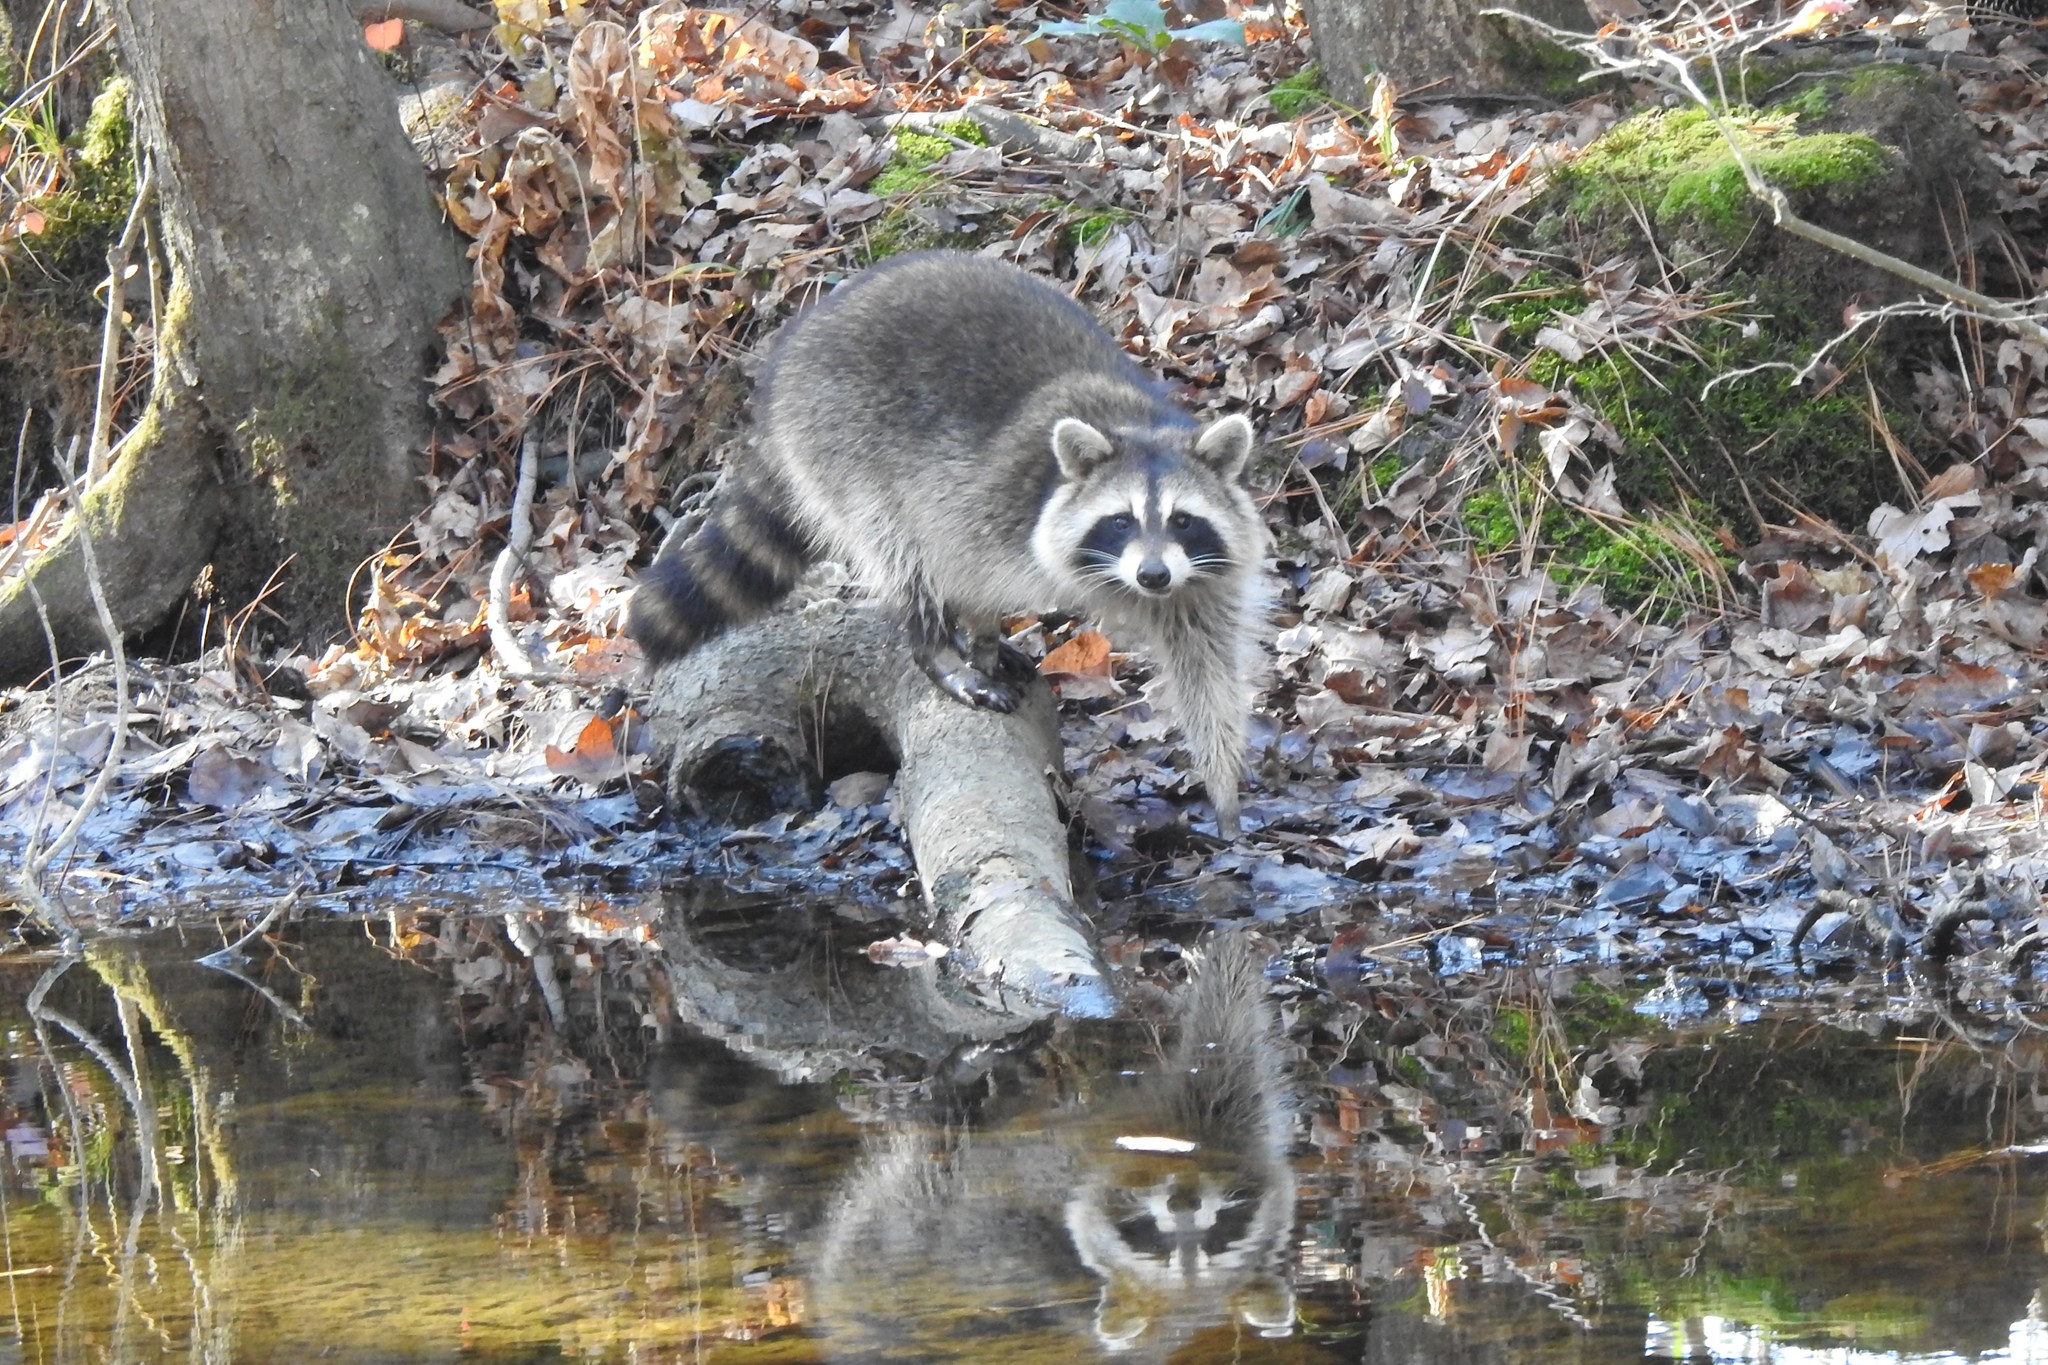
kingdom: Animalia
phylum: Chordata
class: Mammalia
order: Carnivora
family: Procyonidae
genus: Procyon
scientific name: Procyon lotor
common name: Raccoon
